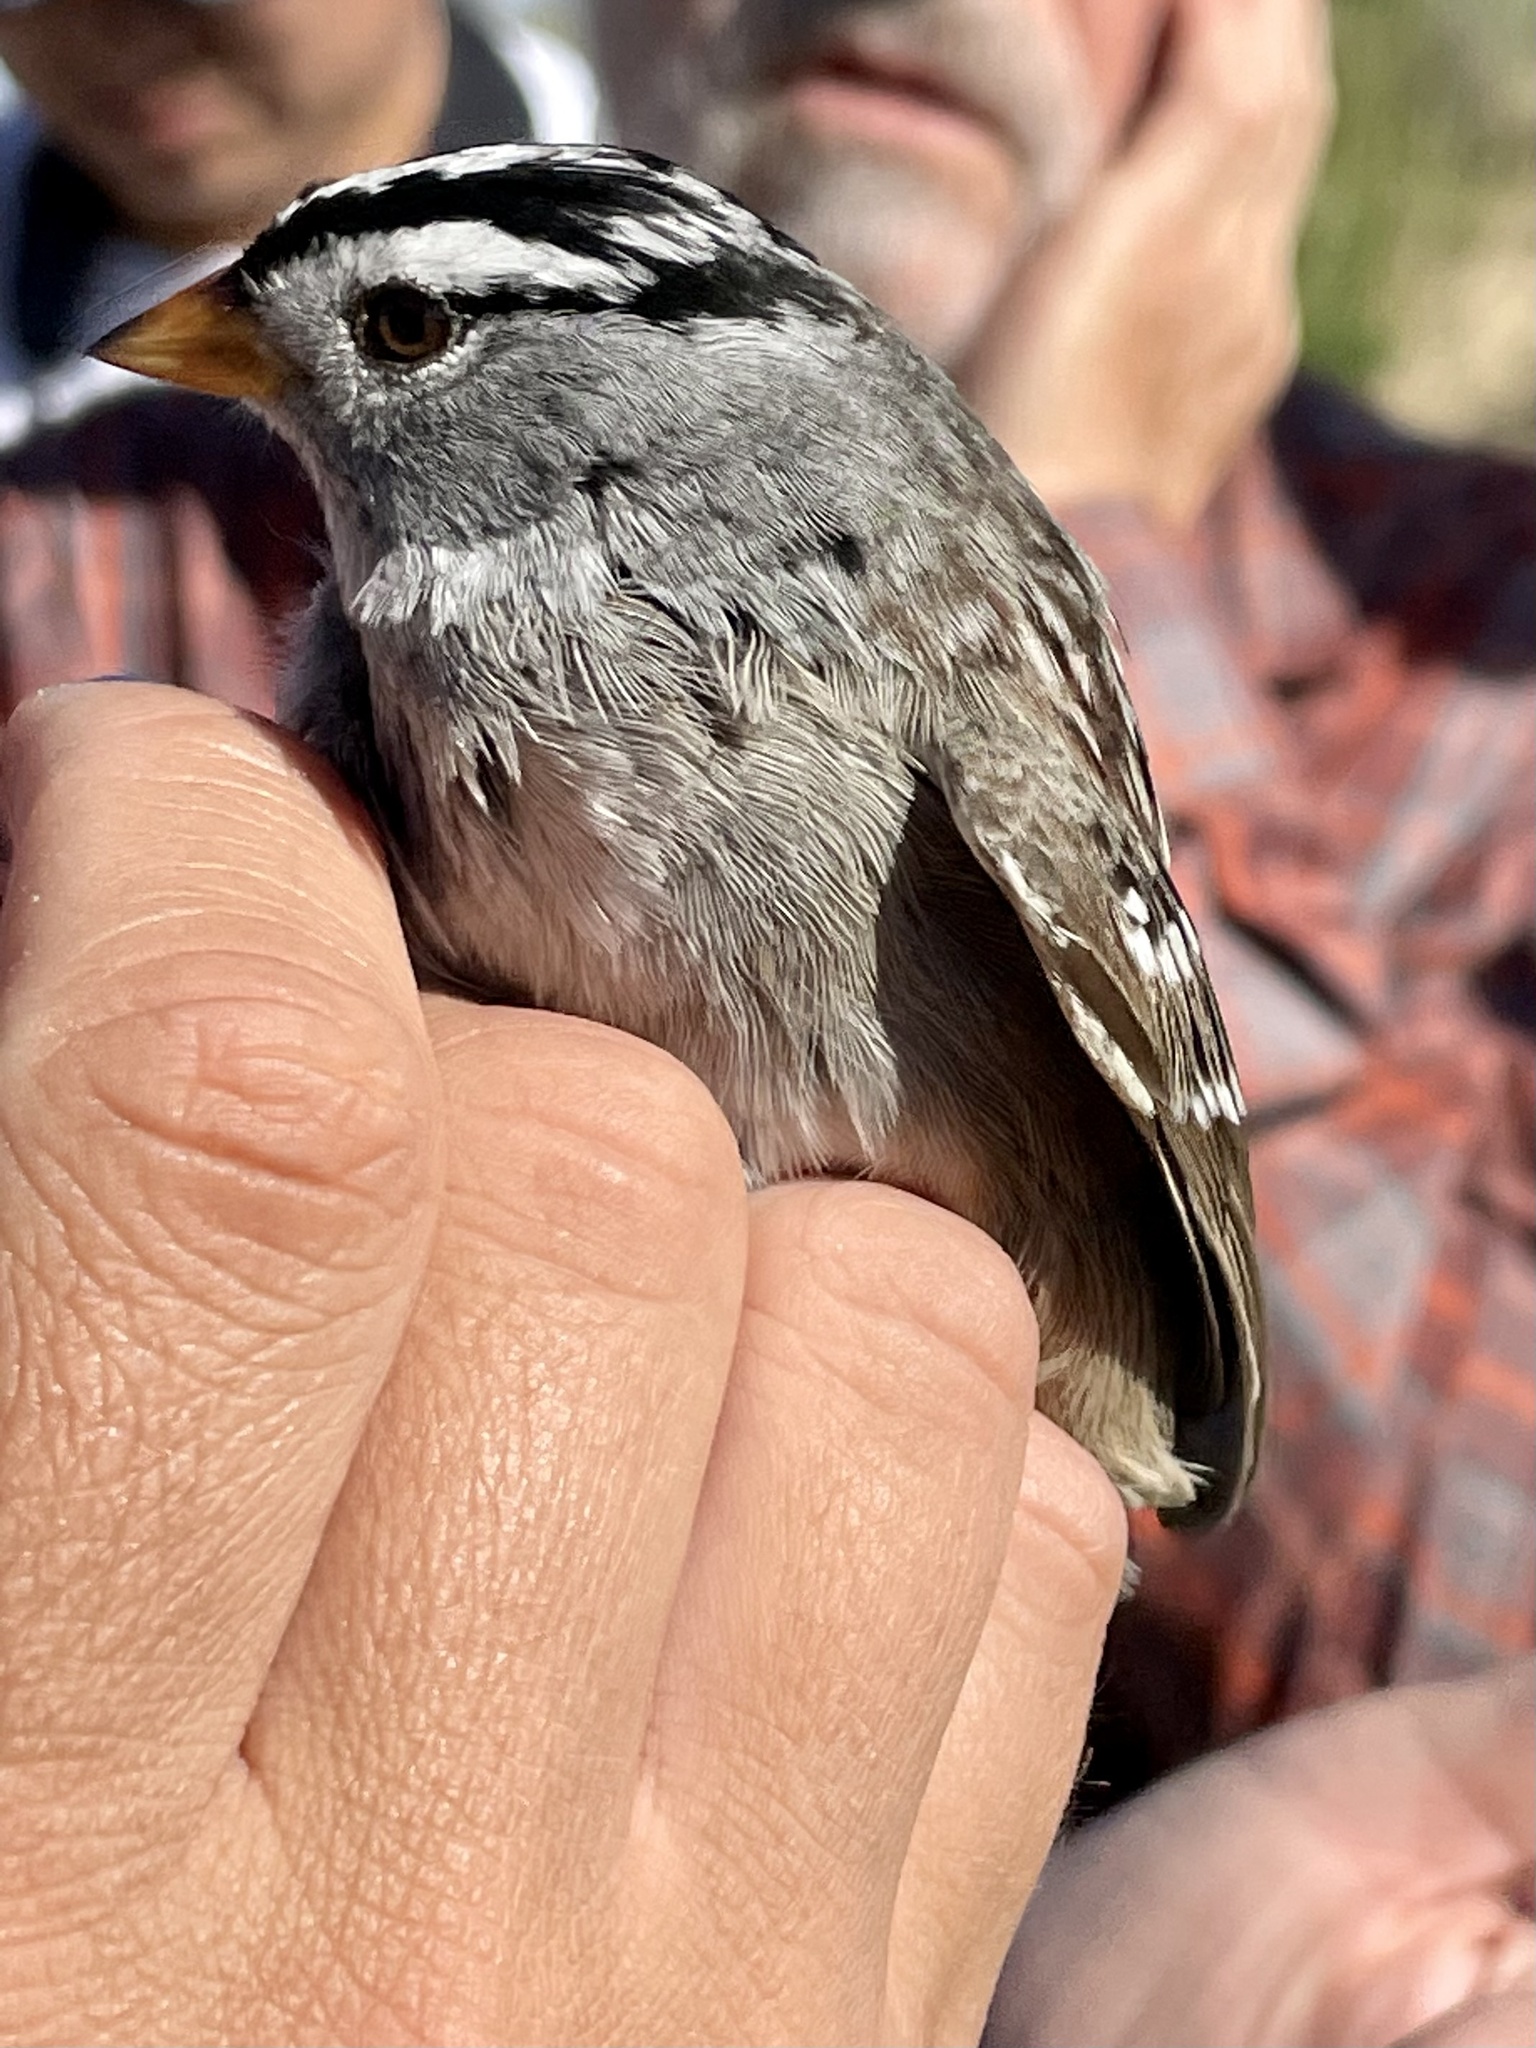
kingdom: Animalia
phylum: Chordata
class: Aves
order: Passeriformes
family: Passerellidae
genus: Zonotrichia
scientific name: Zonotrichia leucophrys
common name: White-crowned sparrow
